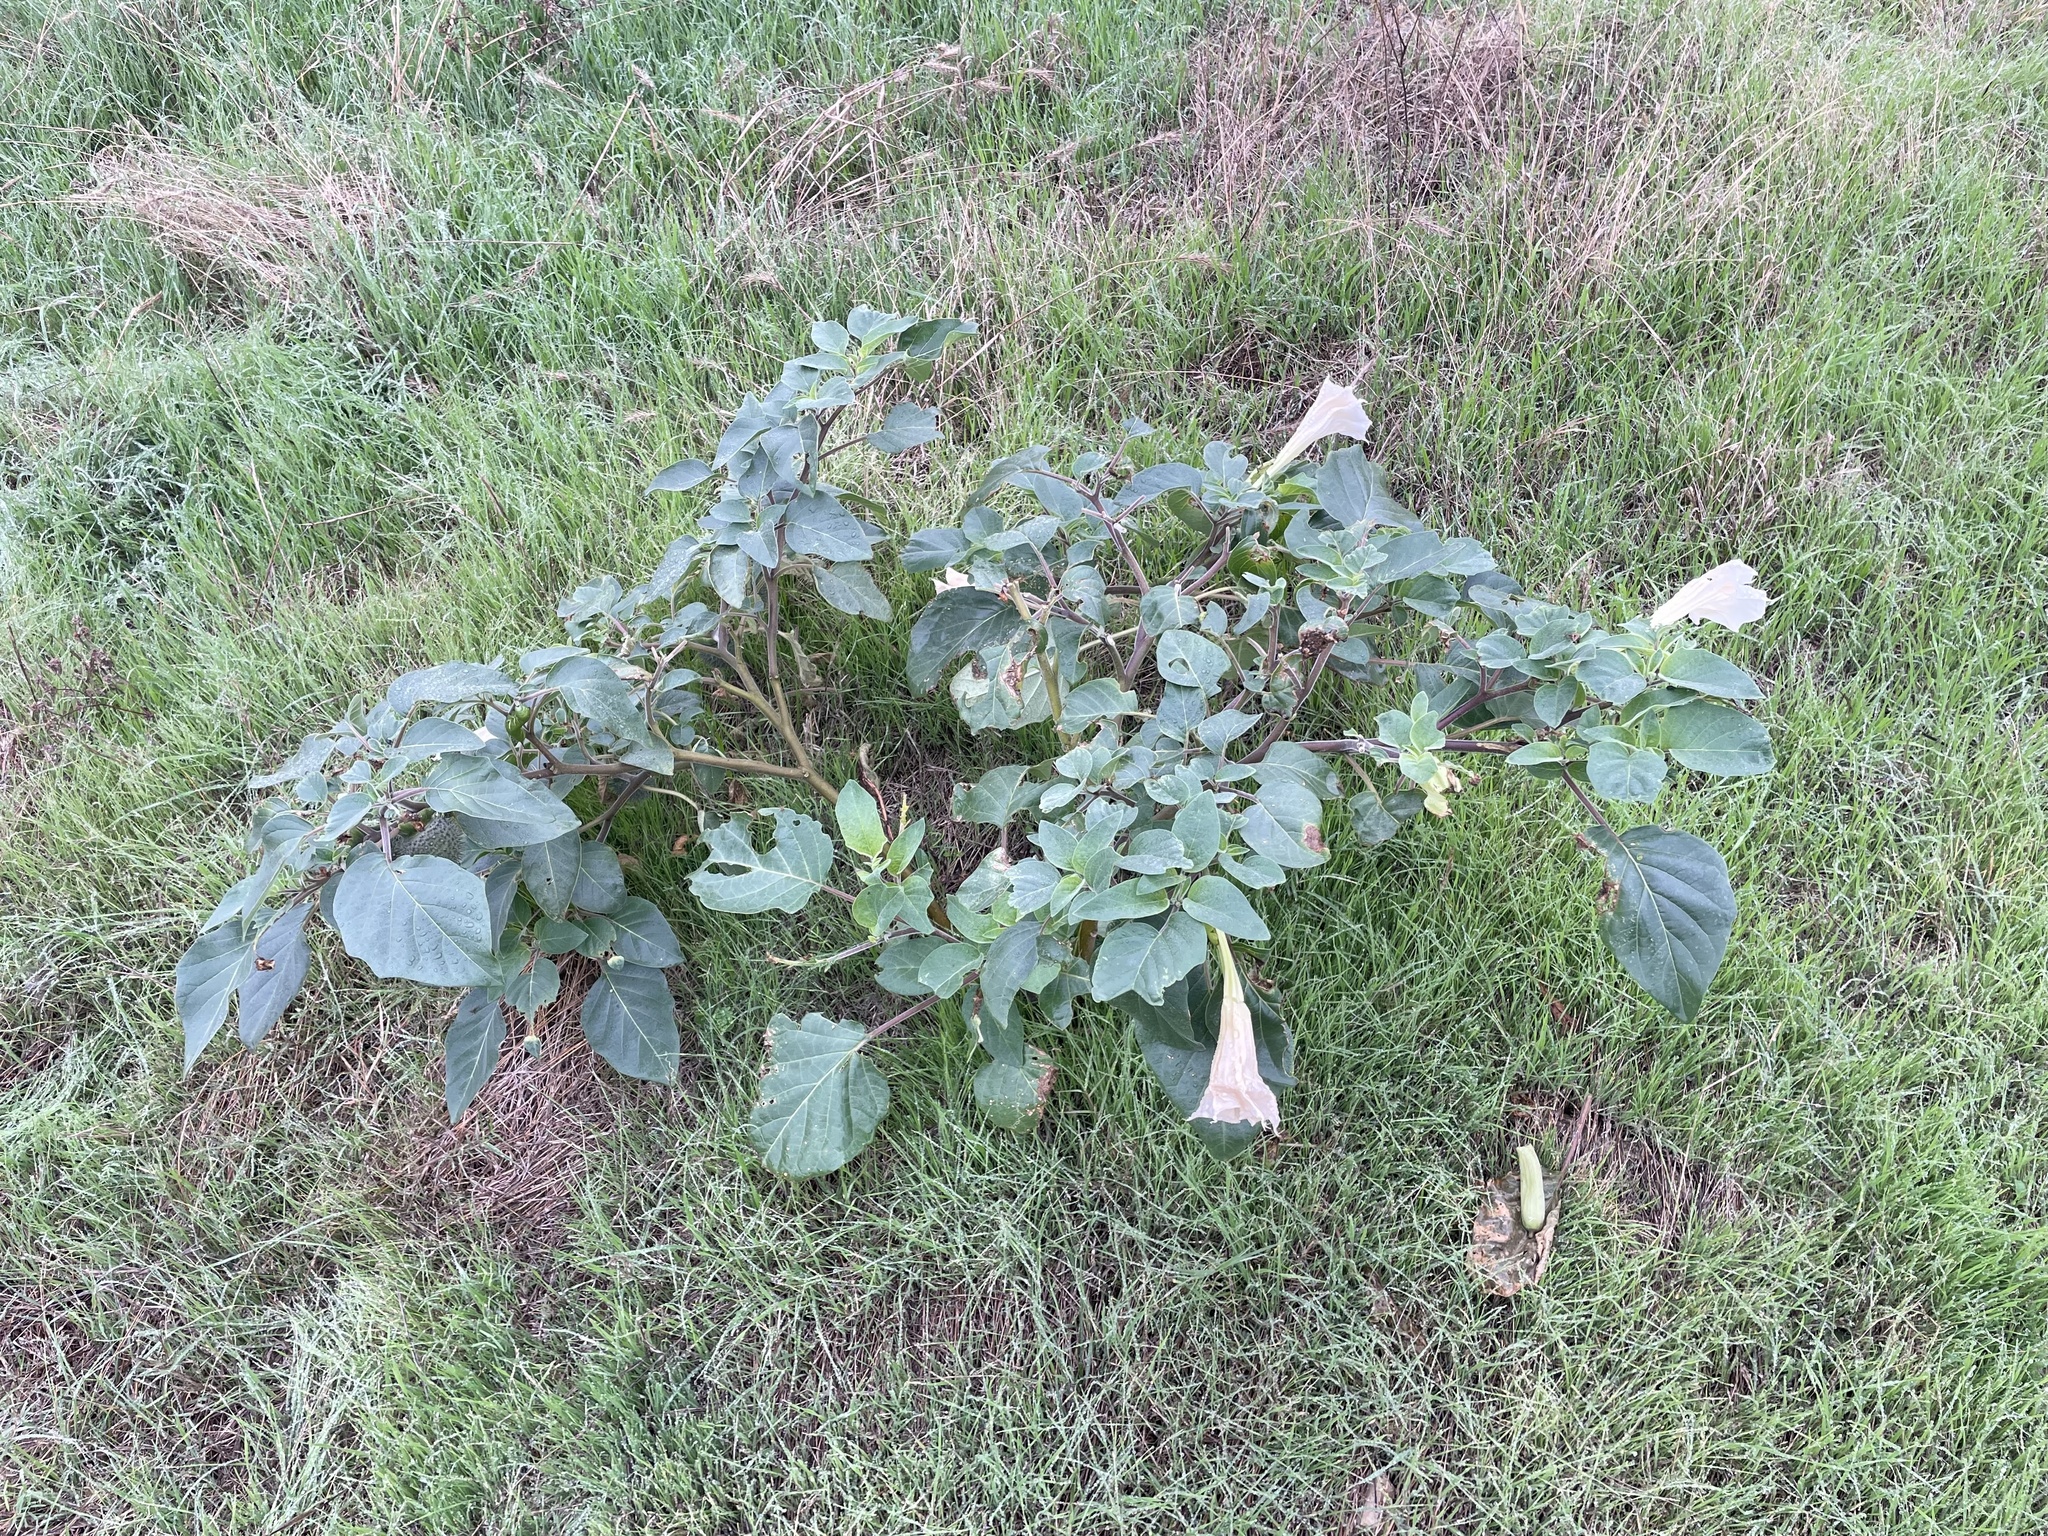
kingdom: Plantae
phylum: Tracheophyta
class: Magnoliopsida
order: Solanales
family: Solanaceae
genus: Datura
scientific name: Datura innoxia
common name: Downy thorn-apple
